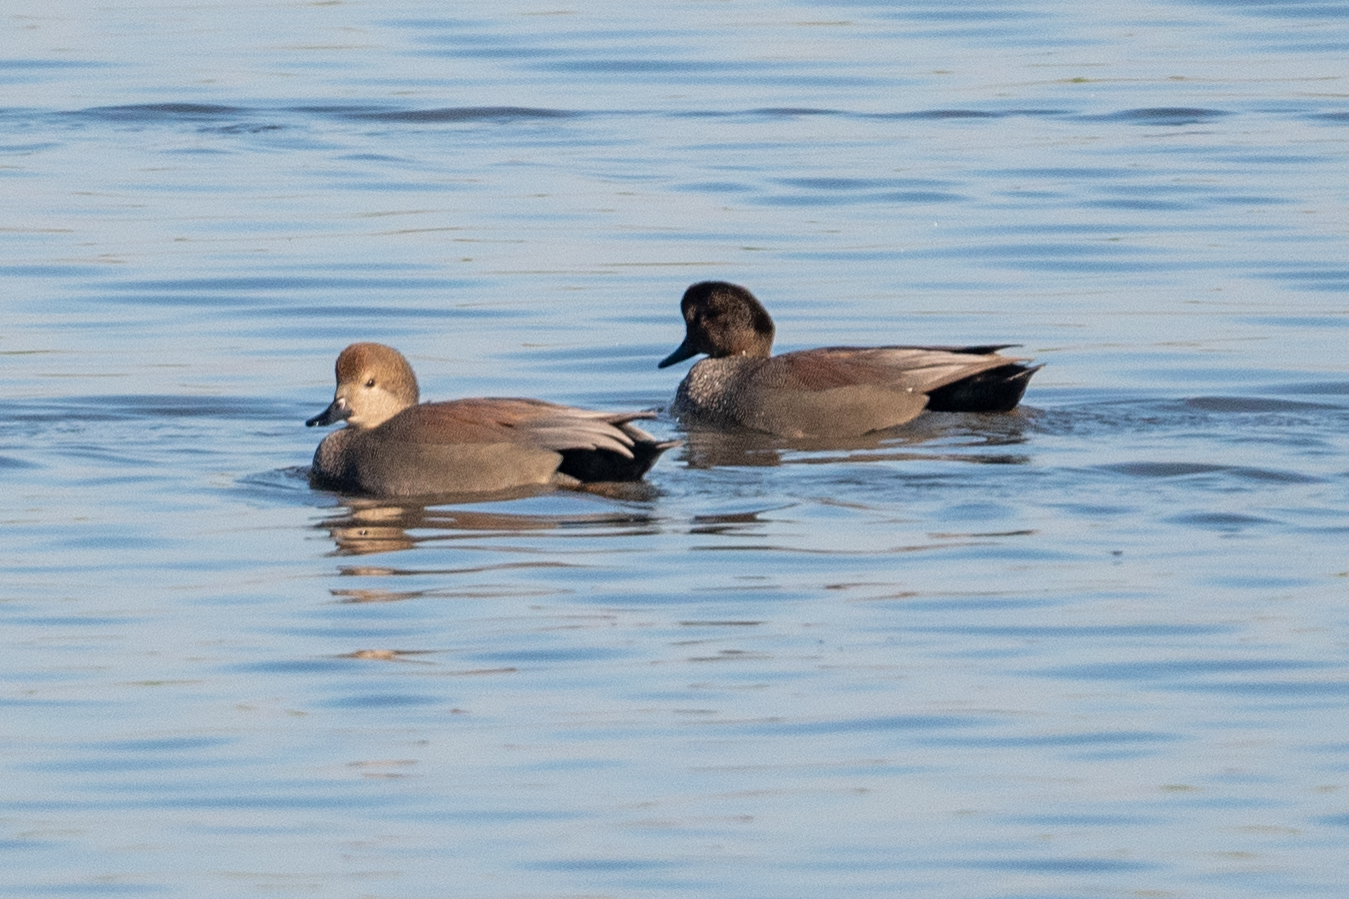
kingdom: Animalia
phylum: Chordata
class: Aves
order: Anseriformes
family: Anatidae
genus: Mareca
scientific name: Mareca strepera
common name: Gadwall
